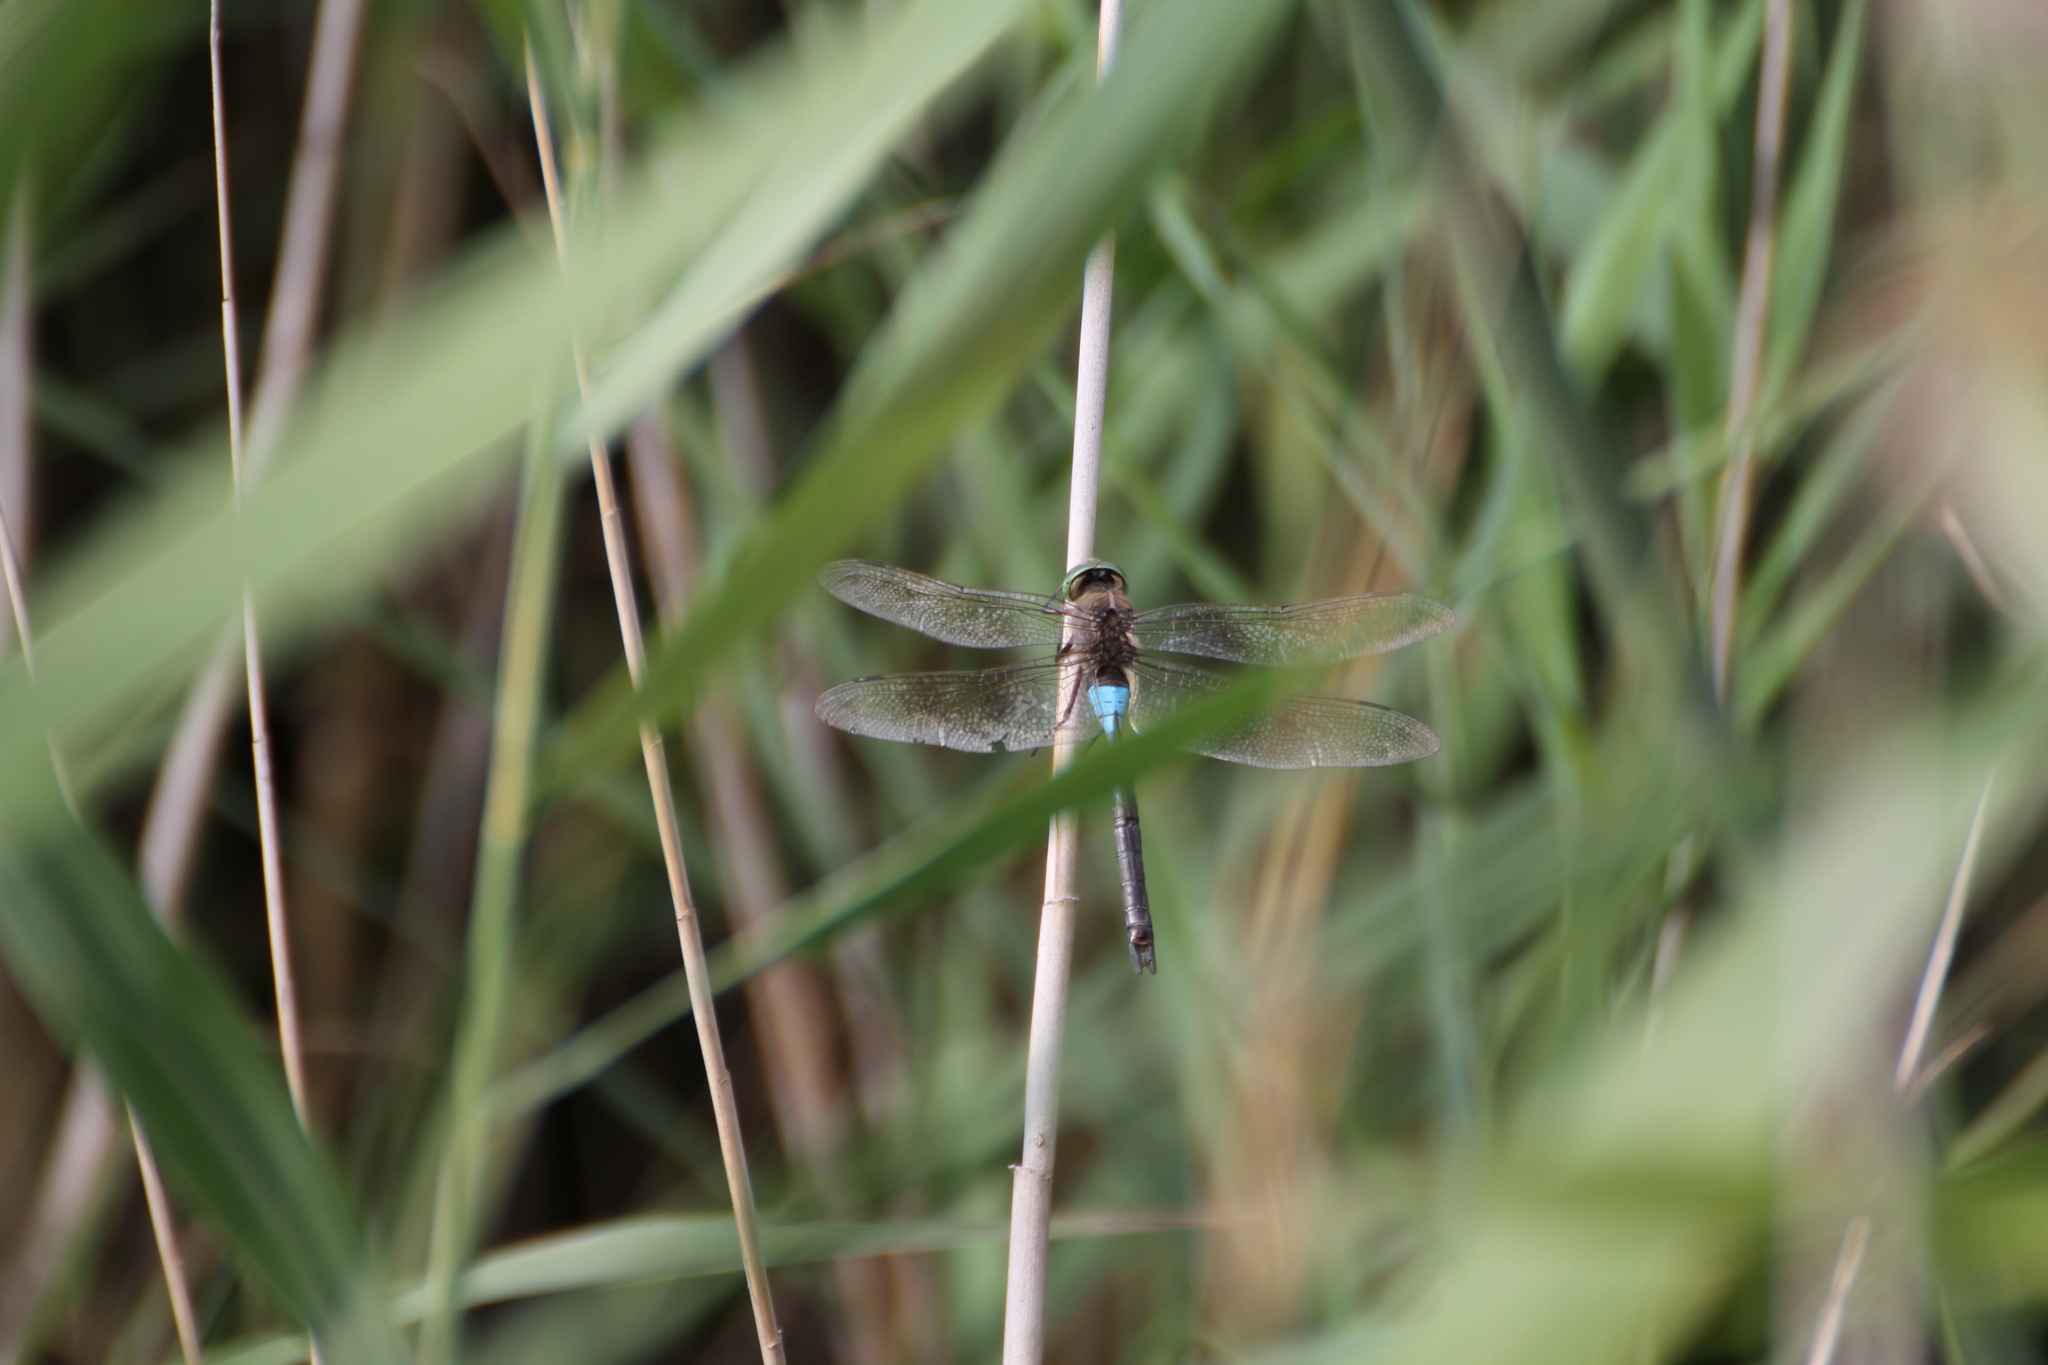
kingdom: Animalia
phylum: Arthropoda
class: Insecta
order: Odonata
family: Aeshnidae
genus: Anax
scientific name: Anax parthenope
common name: Lesser emperor
